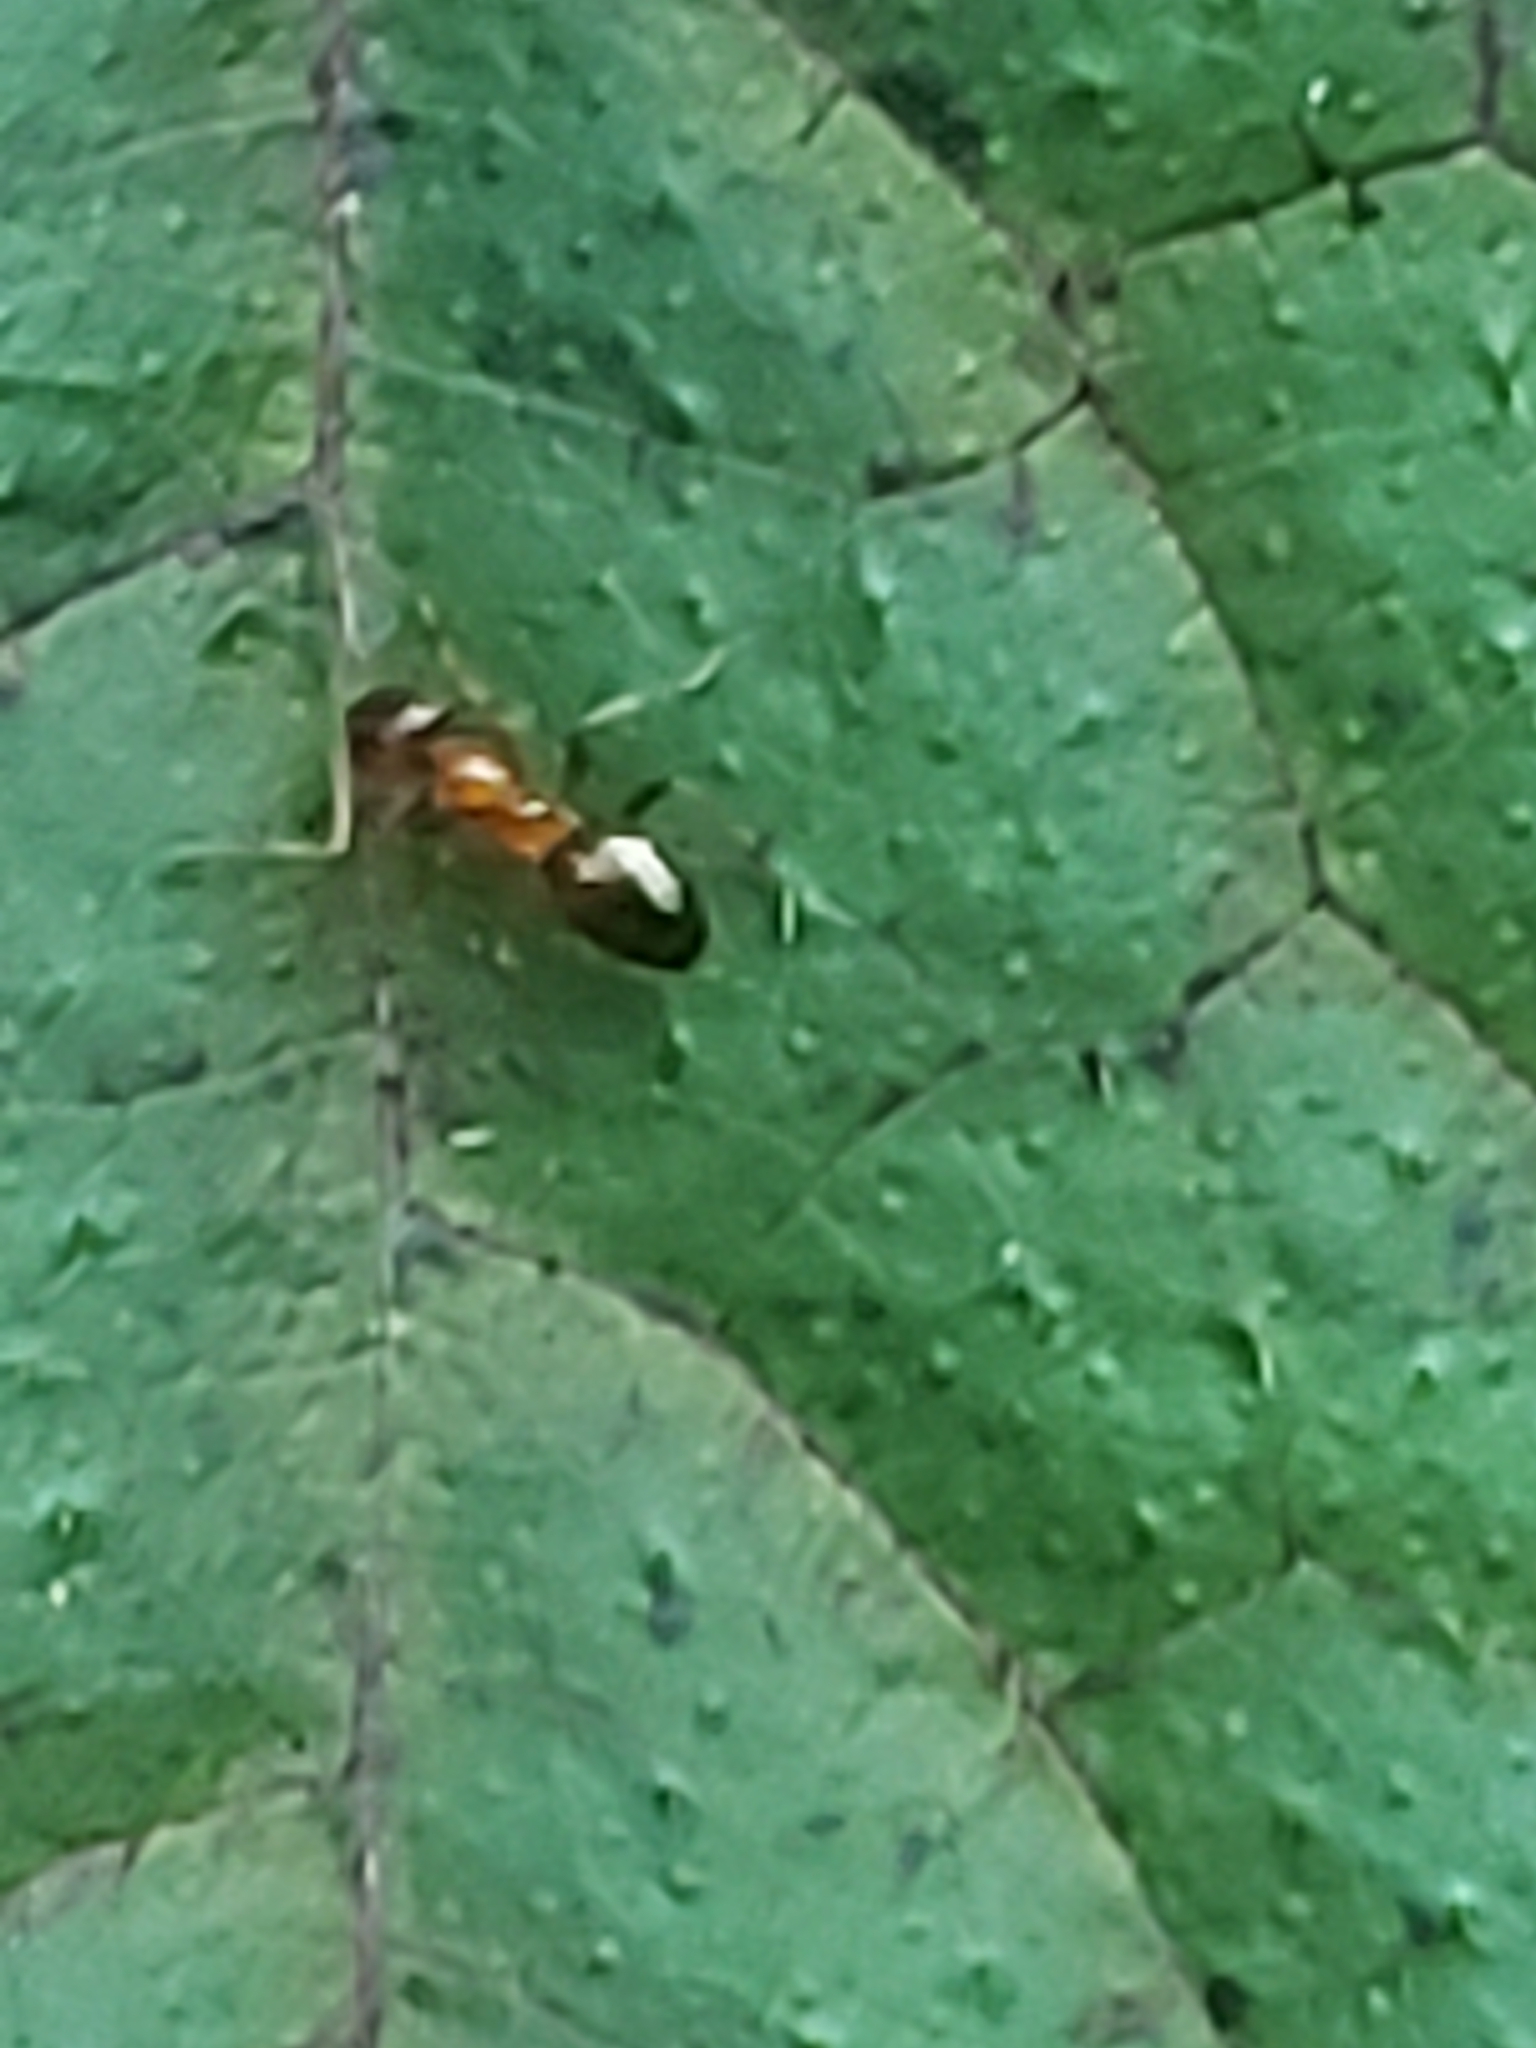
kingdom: Animalia
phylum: Arthropoda
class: Insecta
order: Hymenoptera
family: Formicidae
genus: Paratrechina
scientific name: Paratrechina flavipes
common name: Eastern asian formicine ant
